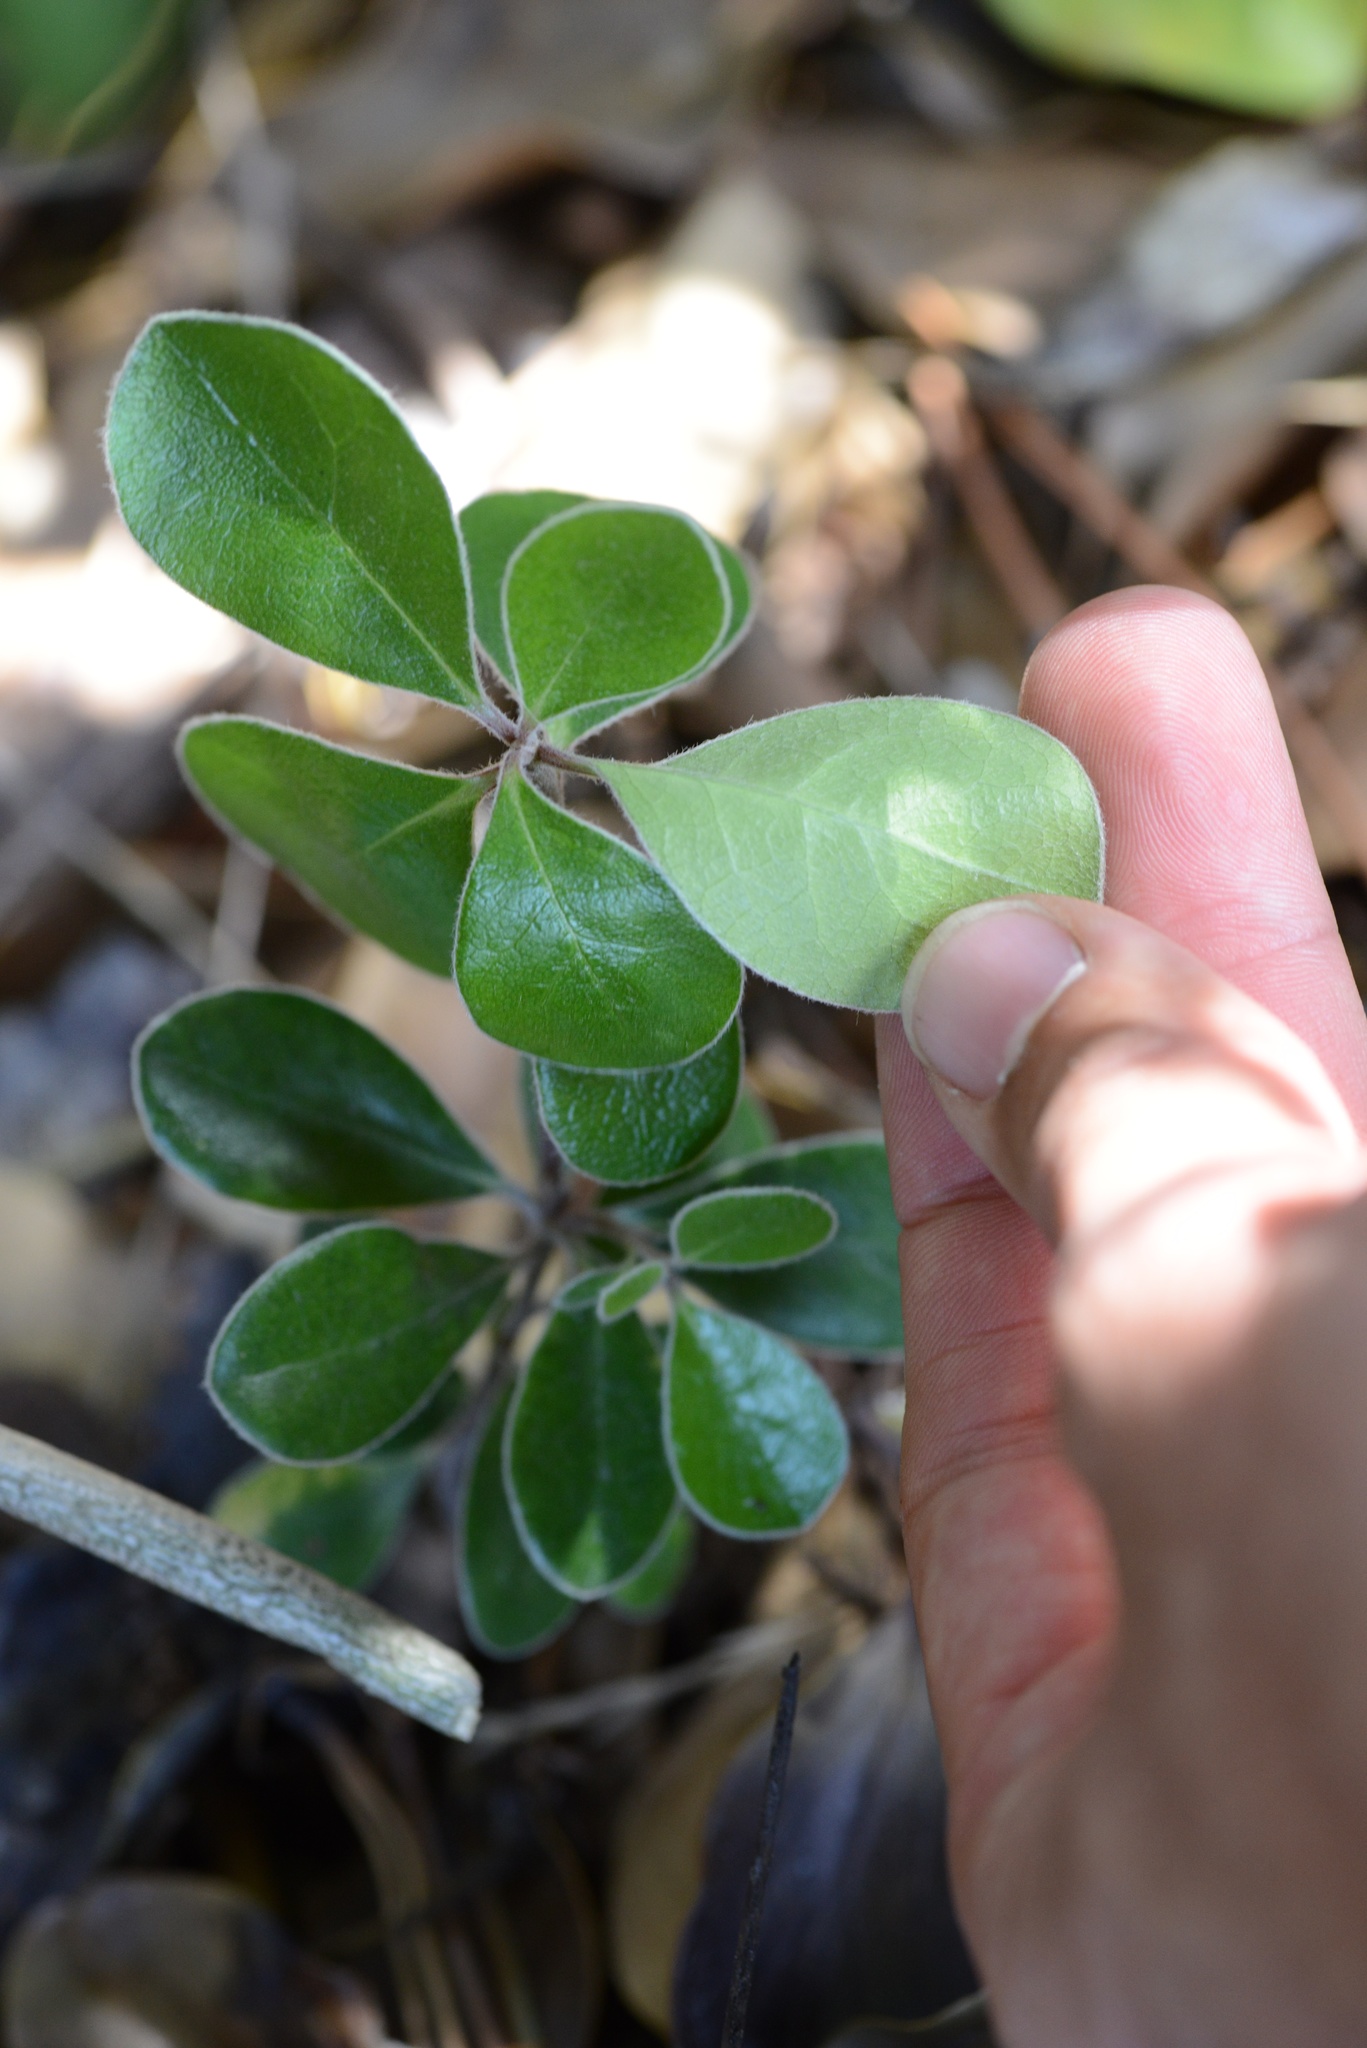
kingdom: Plantae
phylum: Tracheophyta
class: Magnoliopsida
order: Apiales
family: Pittosporaceae
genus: Pittosporum
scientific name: Pittosporum crassifolium
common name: Karo
